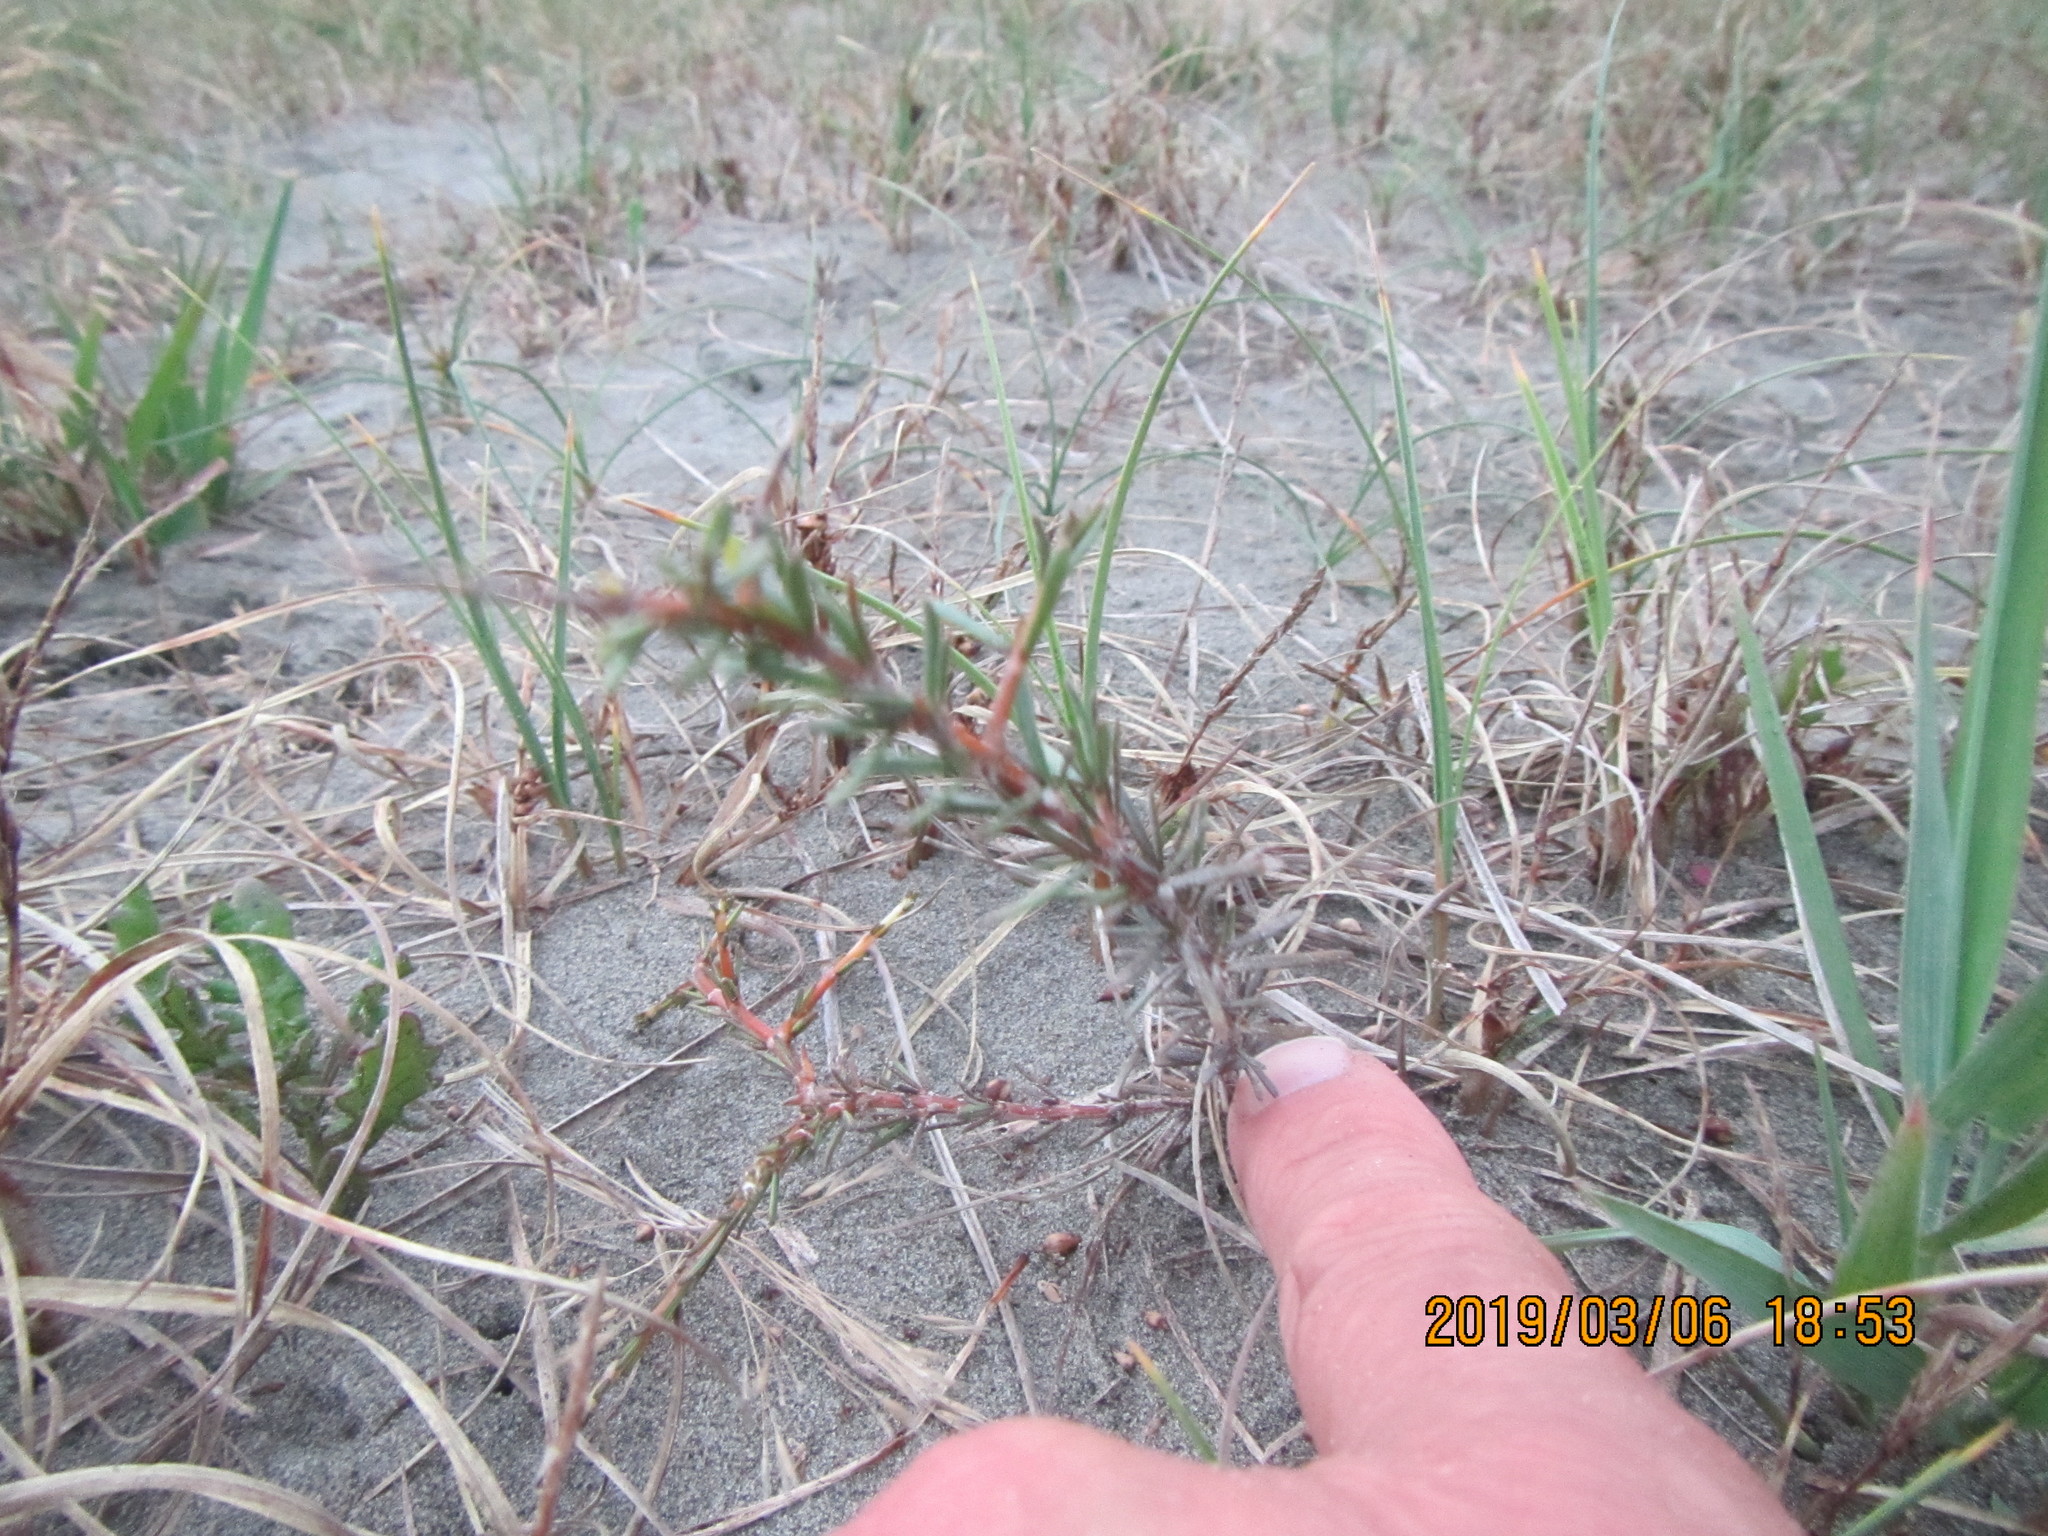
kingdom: Plantae
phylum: Tracheophyta
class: Magnoliopsida
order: Gentianales
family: Rubiaceae
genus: Coprosma
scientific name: Coprosma acerosa
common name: Sand coprosma
